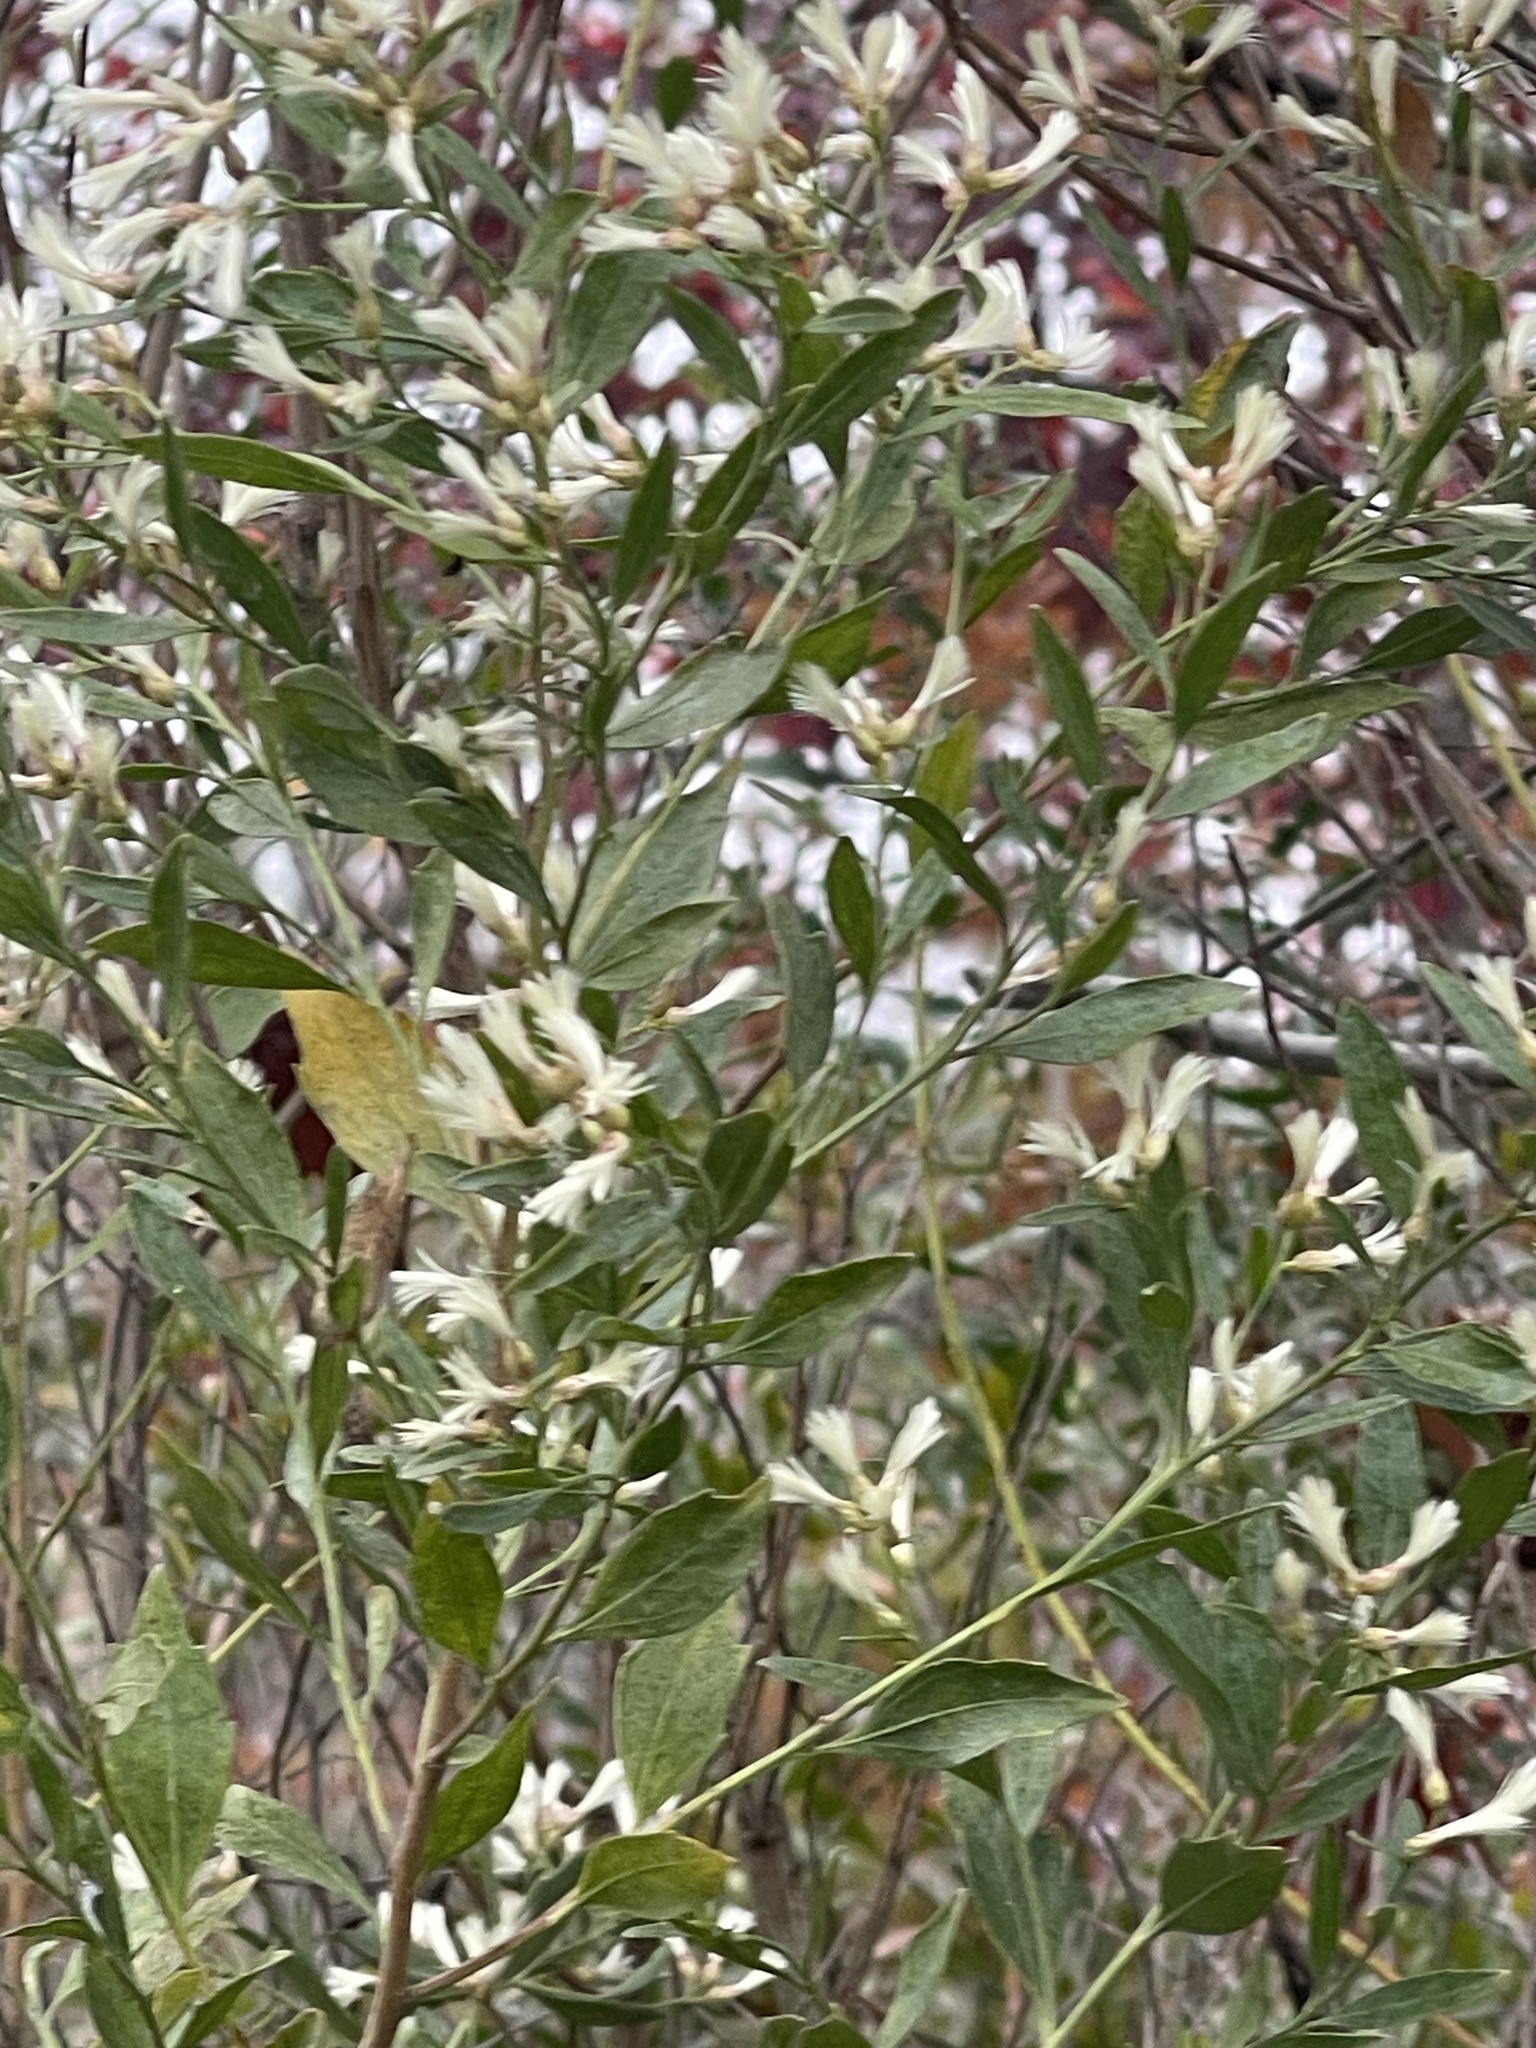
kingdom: Plantae
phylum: Tracheophyta
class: Magnoliopsida
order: Asterales
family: Asteraceae
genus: Baccharis
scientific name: Baccharis halimifolia
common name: Eastern baccharis
